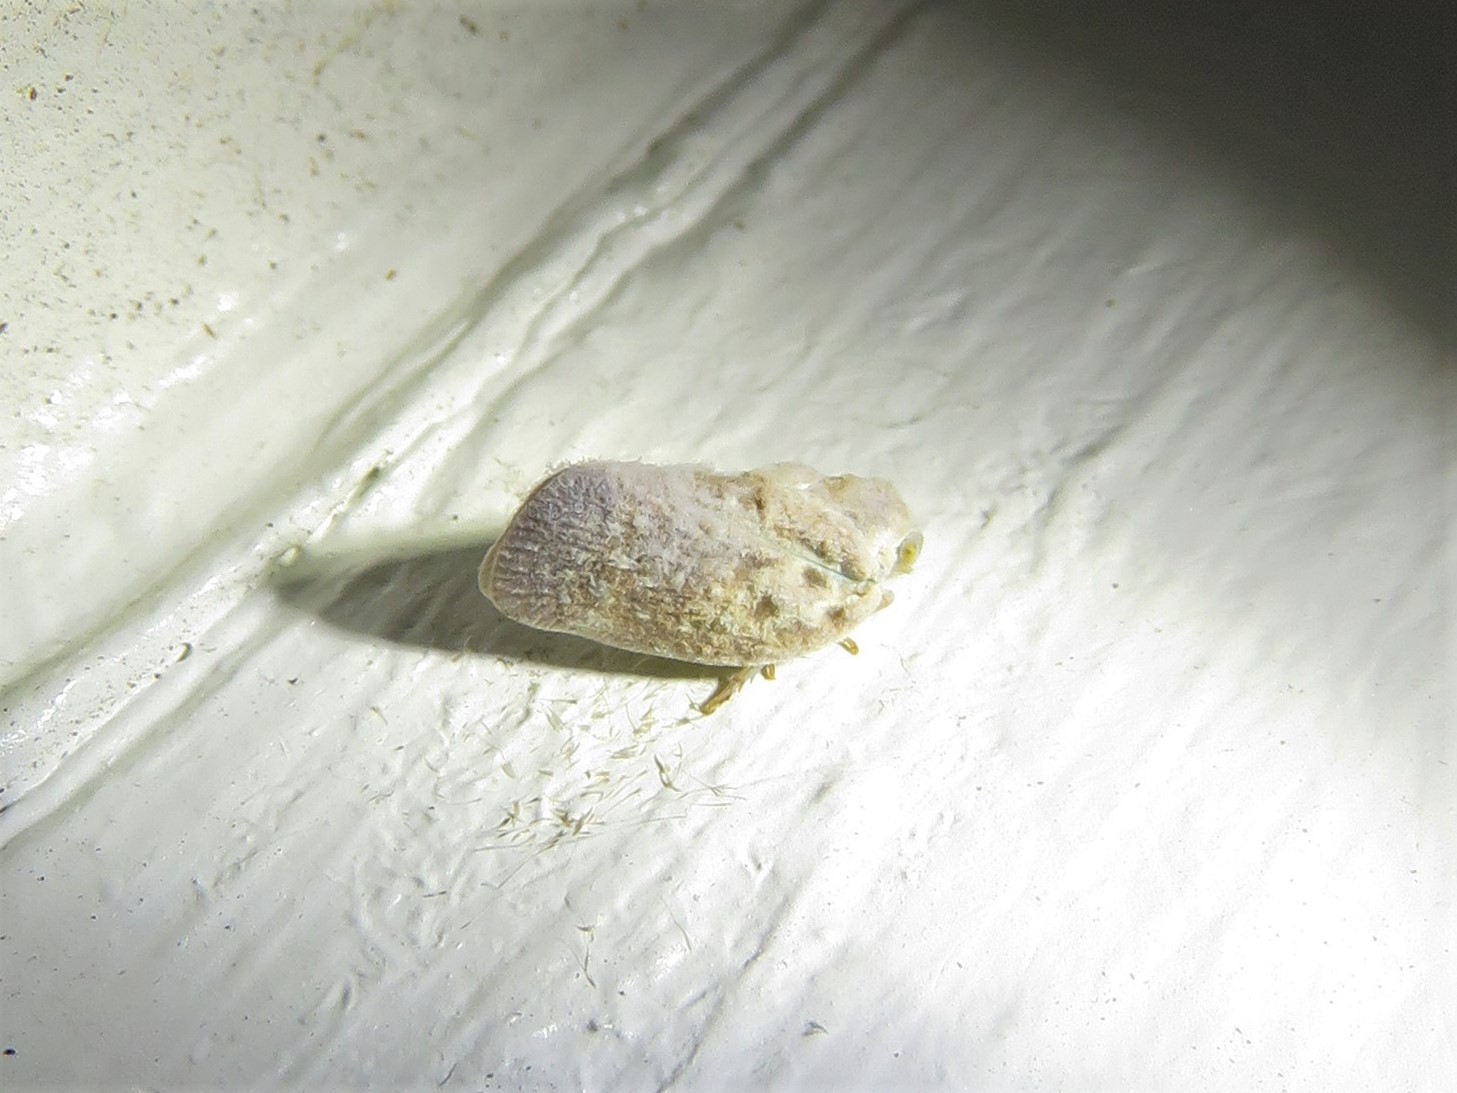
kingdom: Animalia
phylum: Arthropoda
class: Insecta
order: Hemiptera
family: Flatidae
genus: Metcalfa
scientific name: Metcalfa pruinosa
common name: Citrus flatid planthopper
